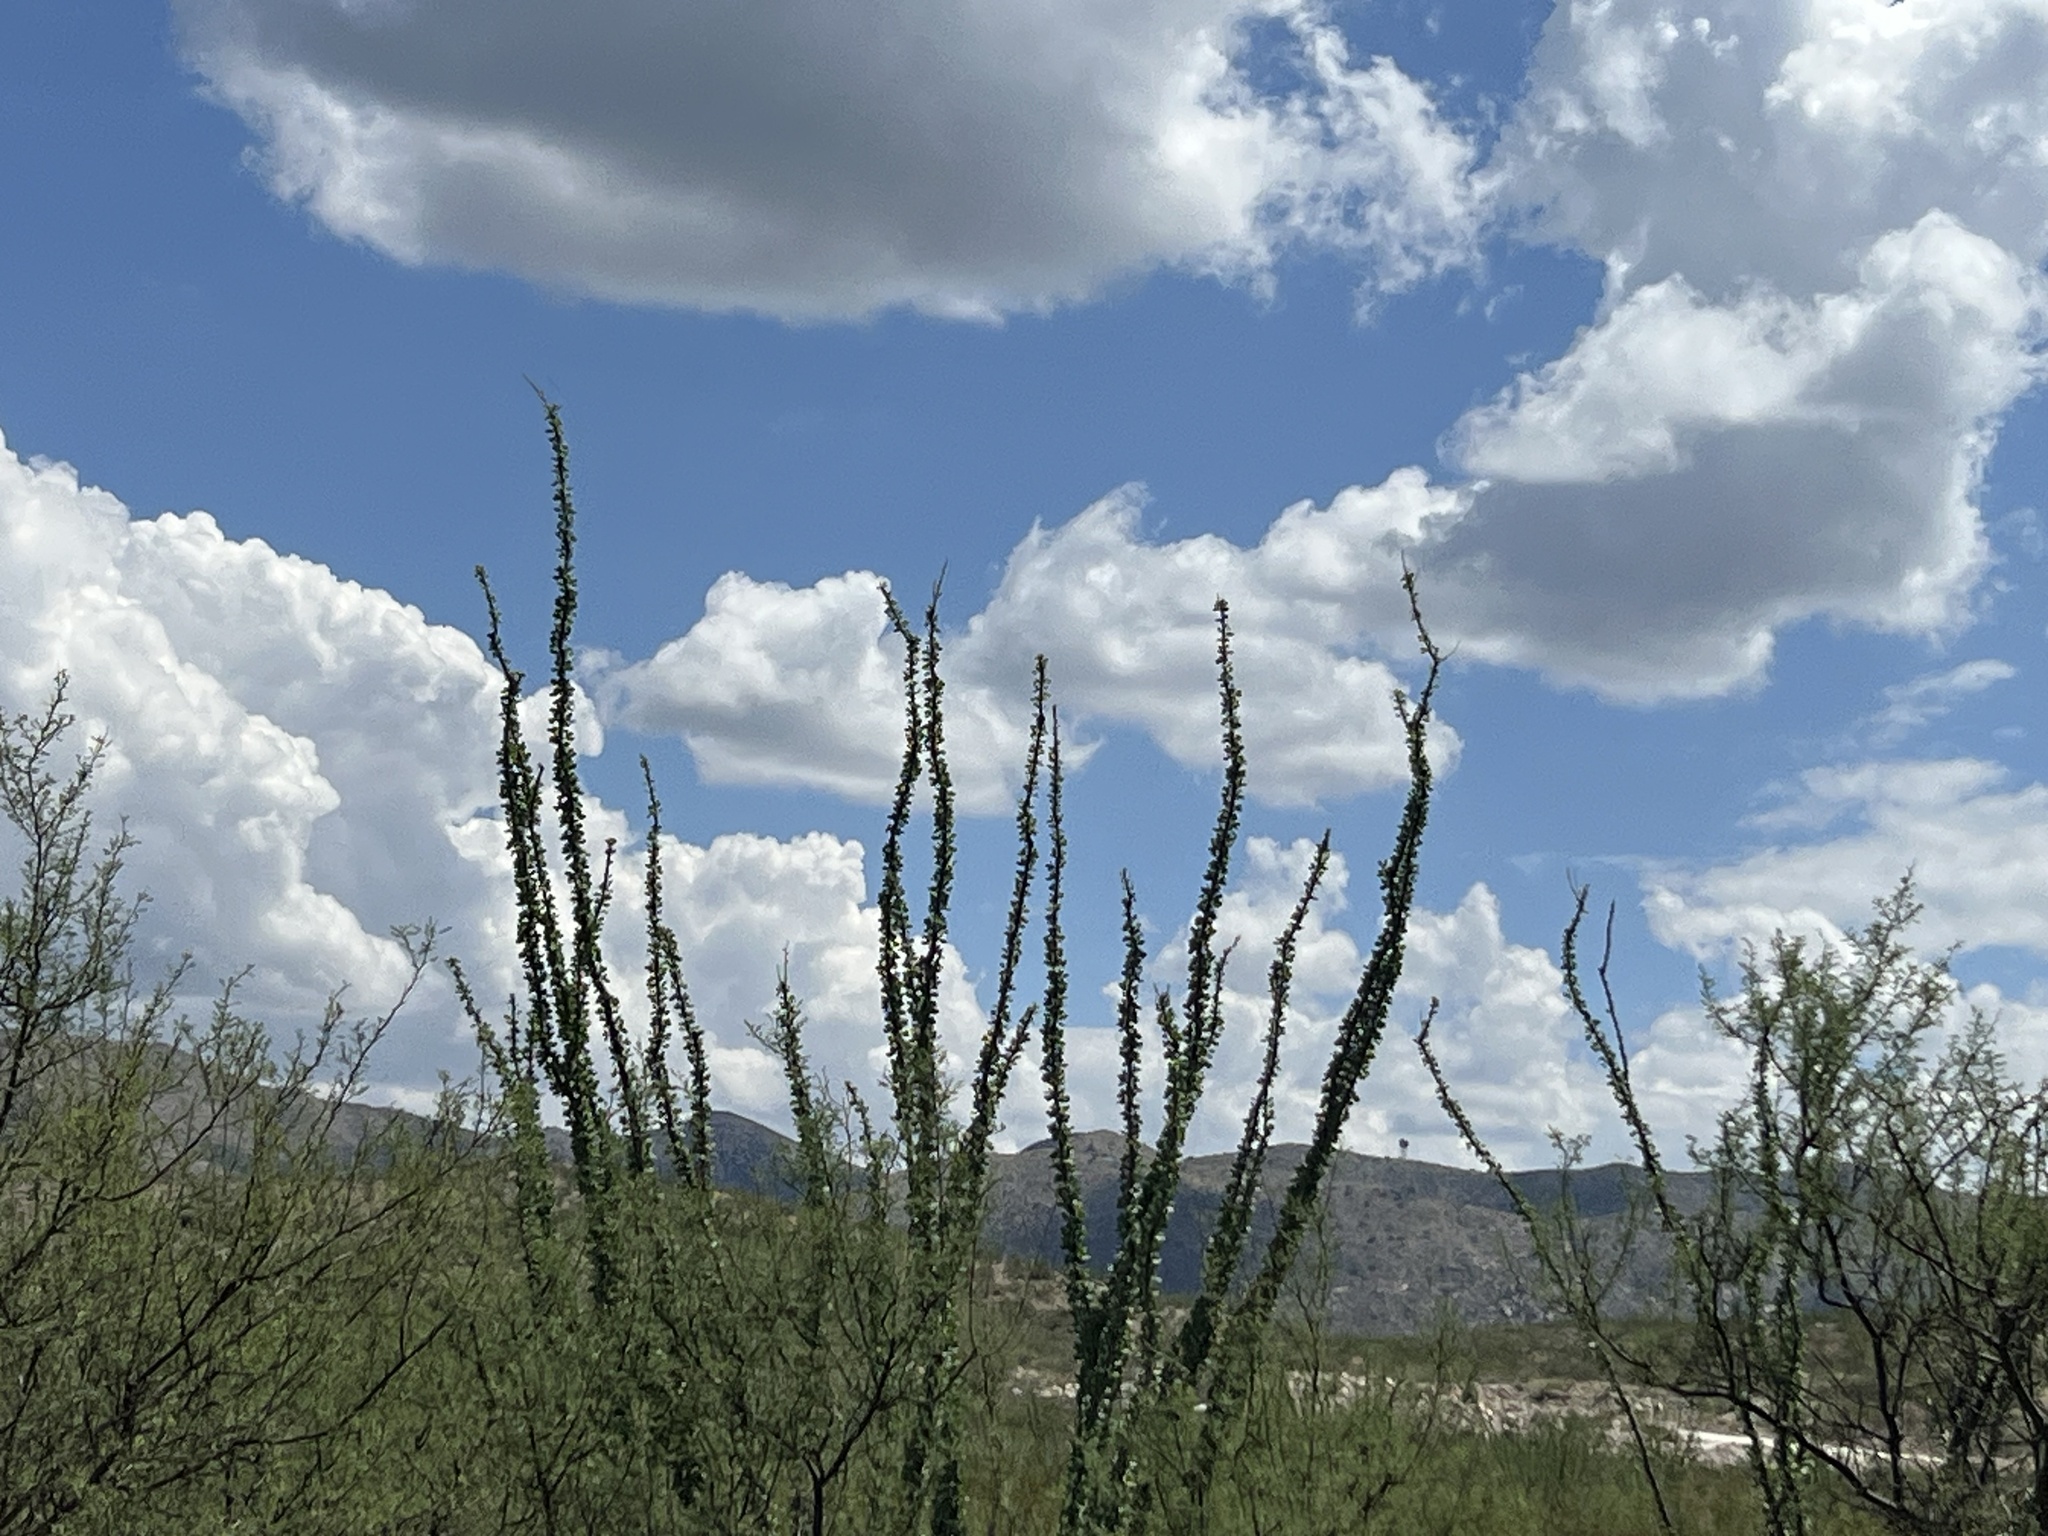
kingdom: Plantae
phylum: Tracheophyta
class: Magnoliopsida
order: Ericales
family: Fouquieriaceae
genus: Fouquieria
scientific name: Fouquieria splendens
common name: Vine-cactus
